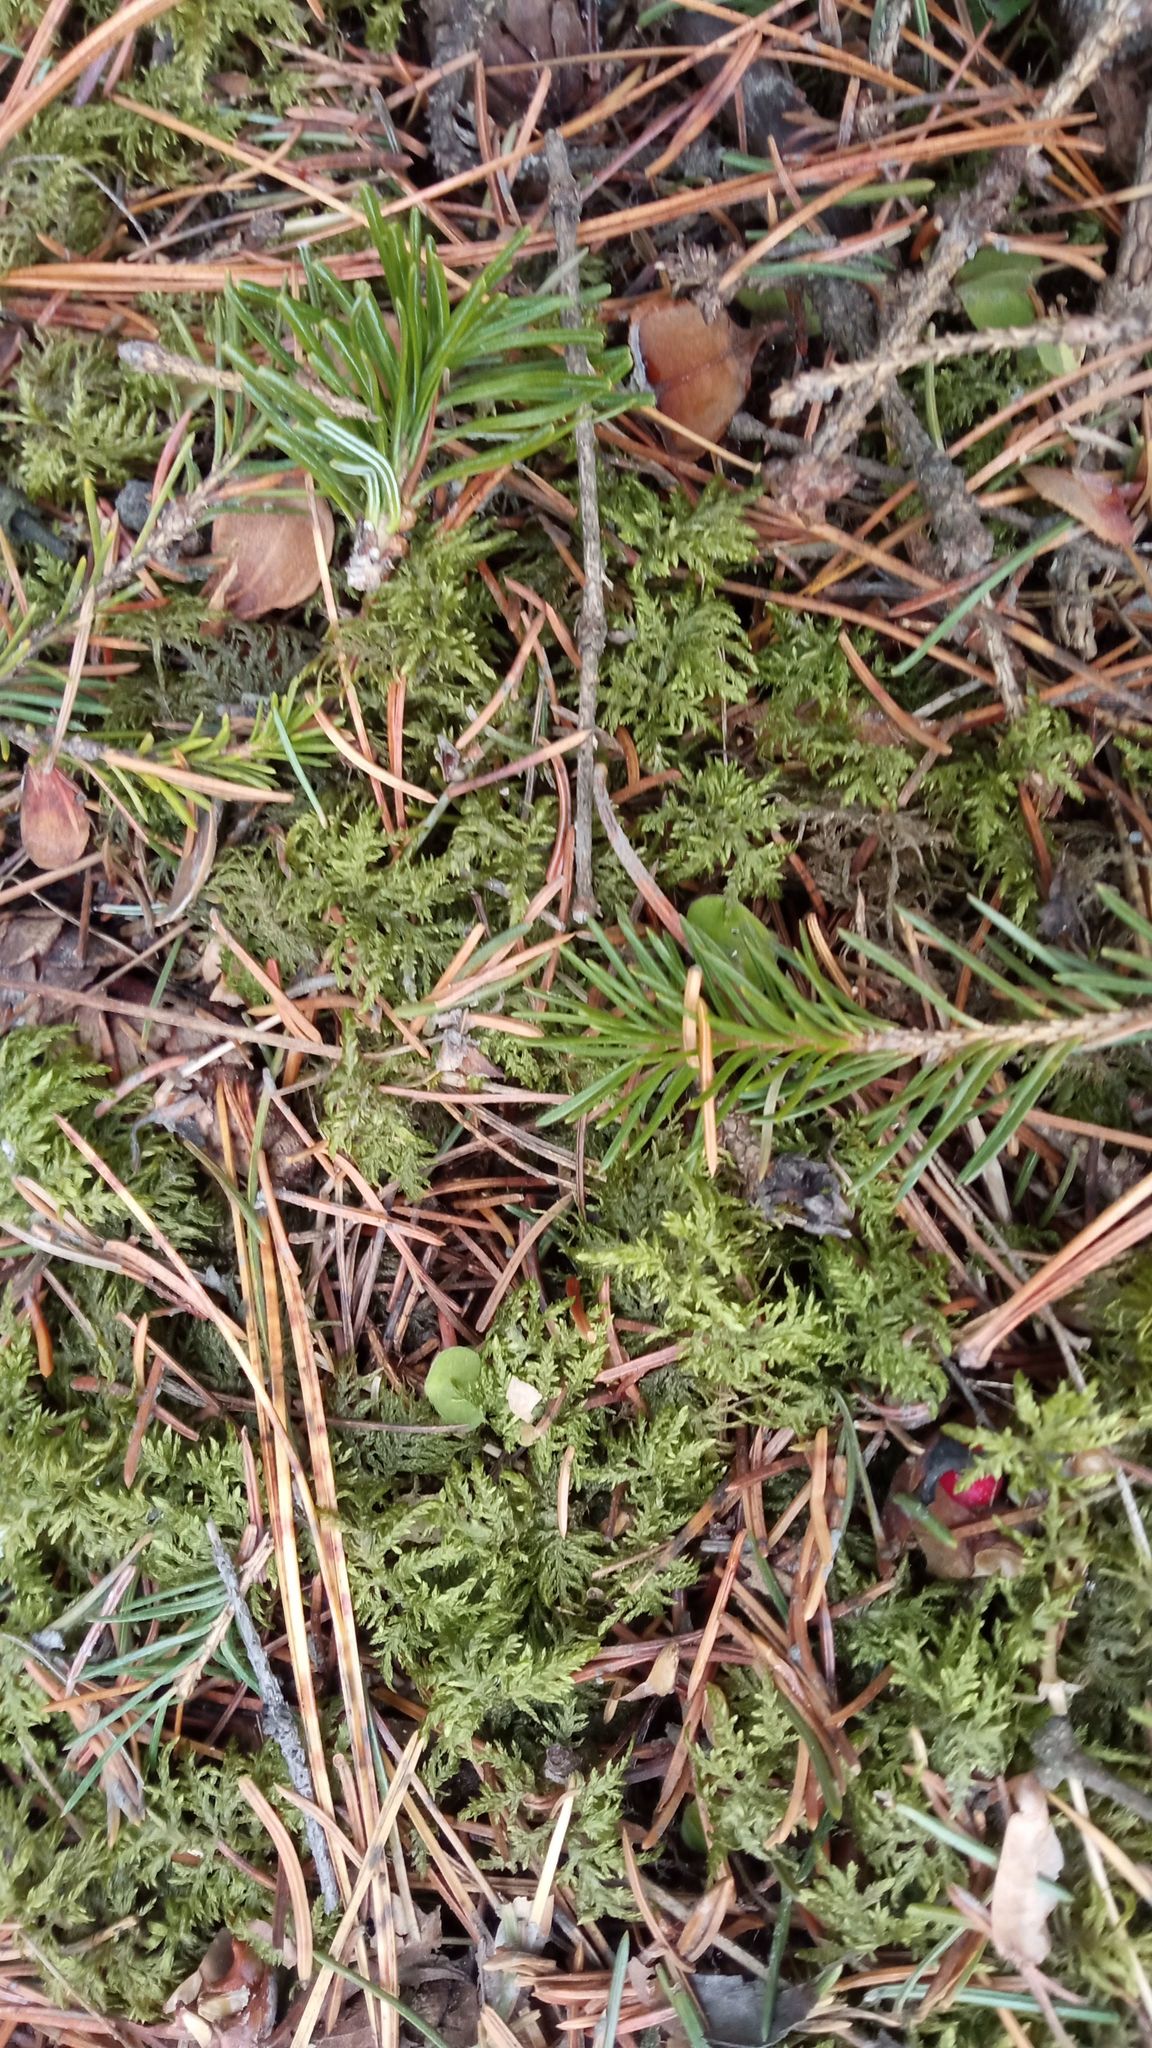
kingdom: Plantae
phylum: Bryophyta
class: Bryopsida
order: Hypnales
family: Hylocomiaceae
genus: Hylocomium
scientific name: Hylocomium splendens
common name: Stairstep moss
